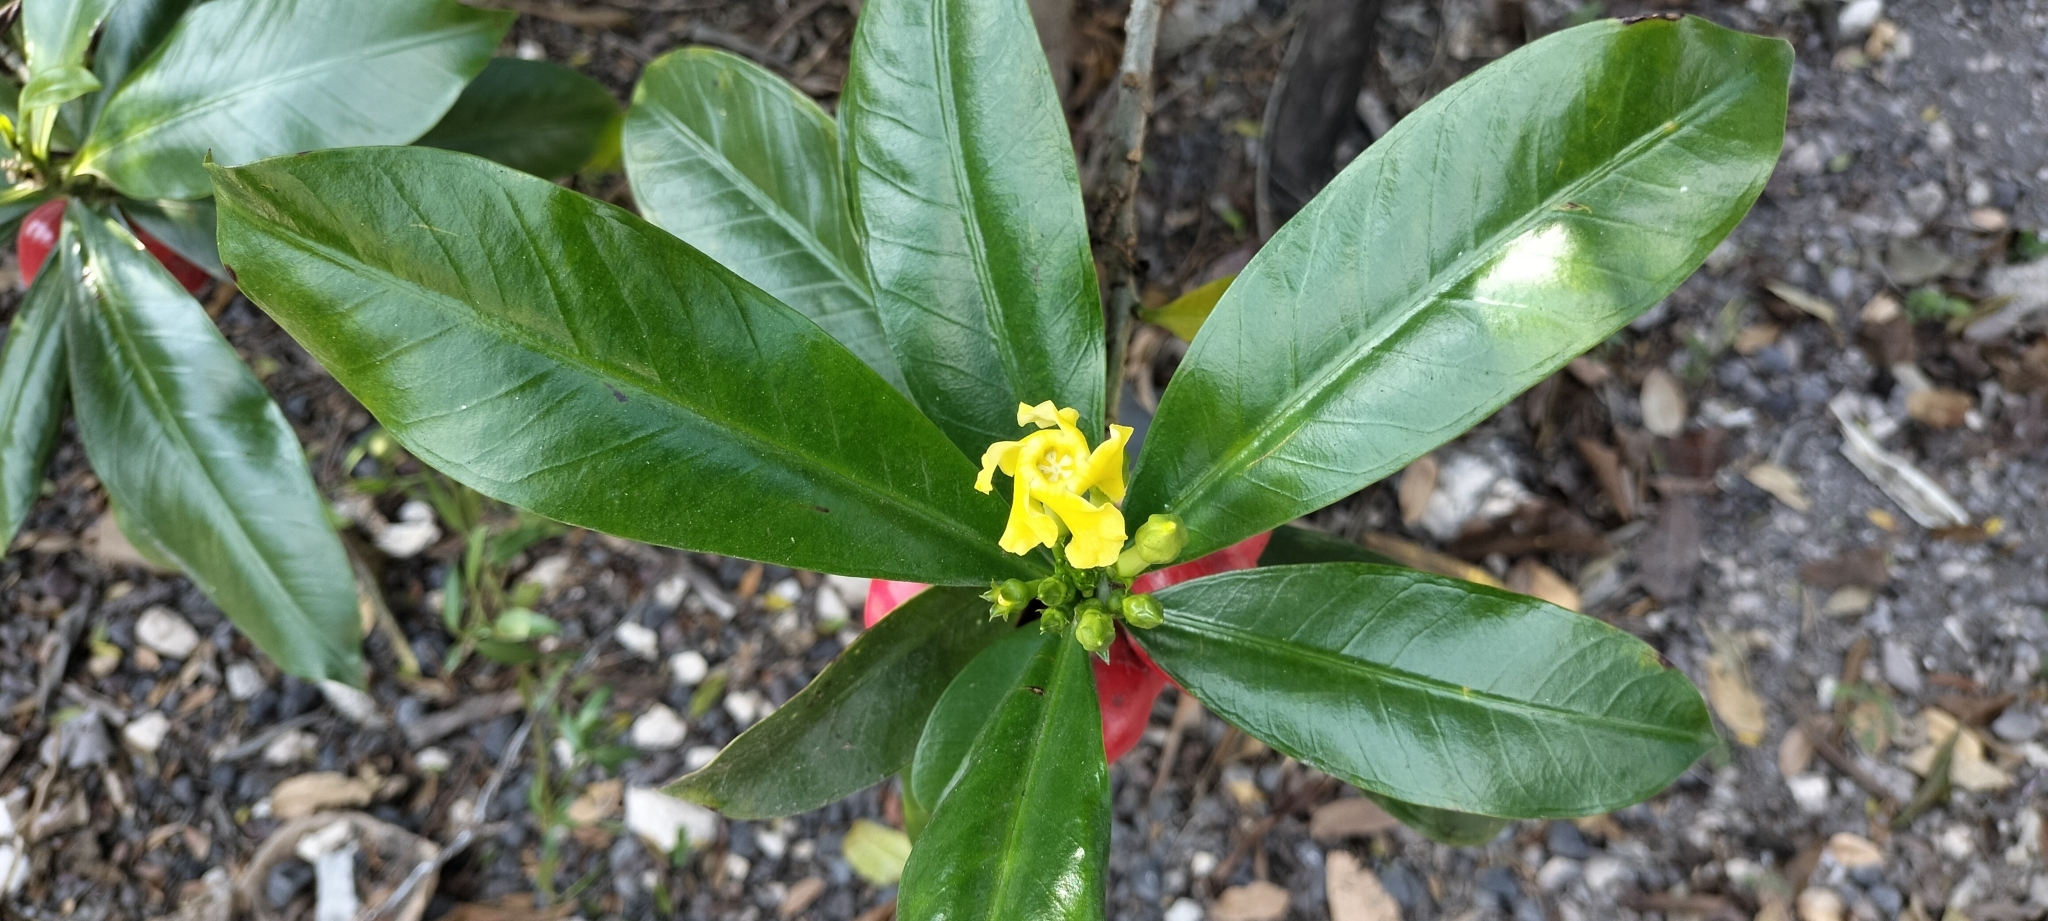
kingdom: Plantae
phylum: Tracheophyta
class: Magnoliopsida
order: Gentianales
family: Apocynaceae
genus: Thevetia
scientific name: Thevetia ahouai
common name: Broadleaf thevetia
